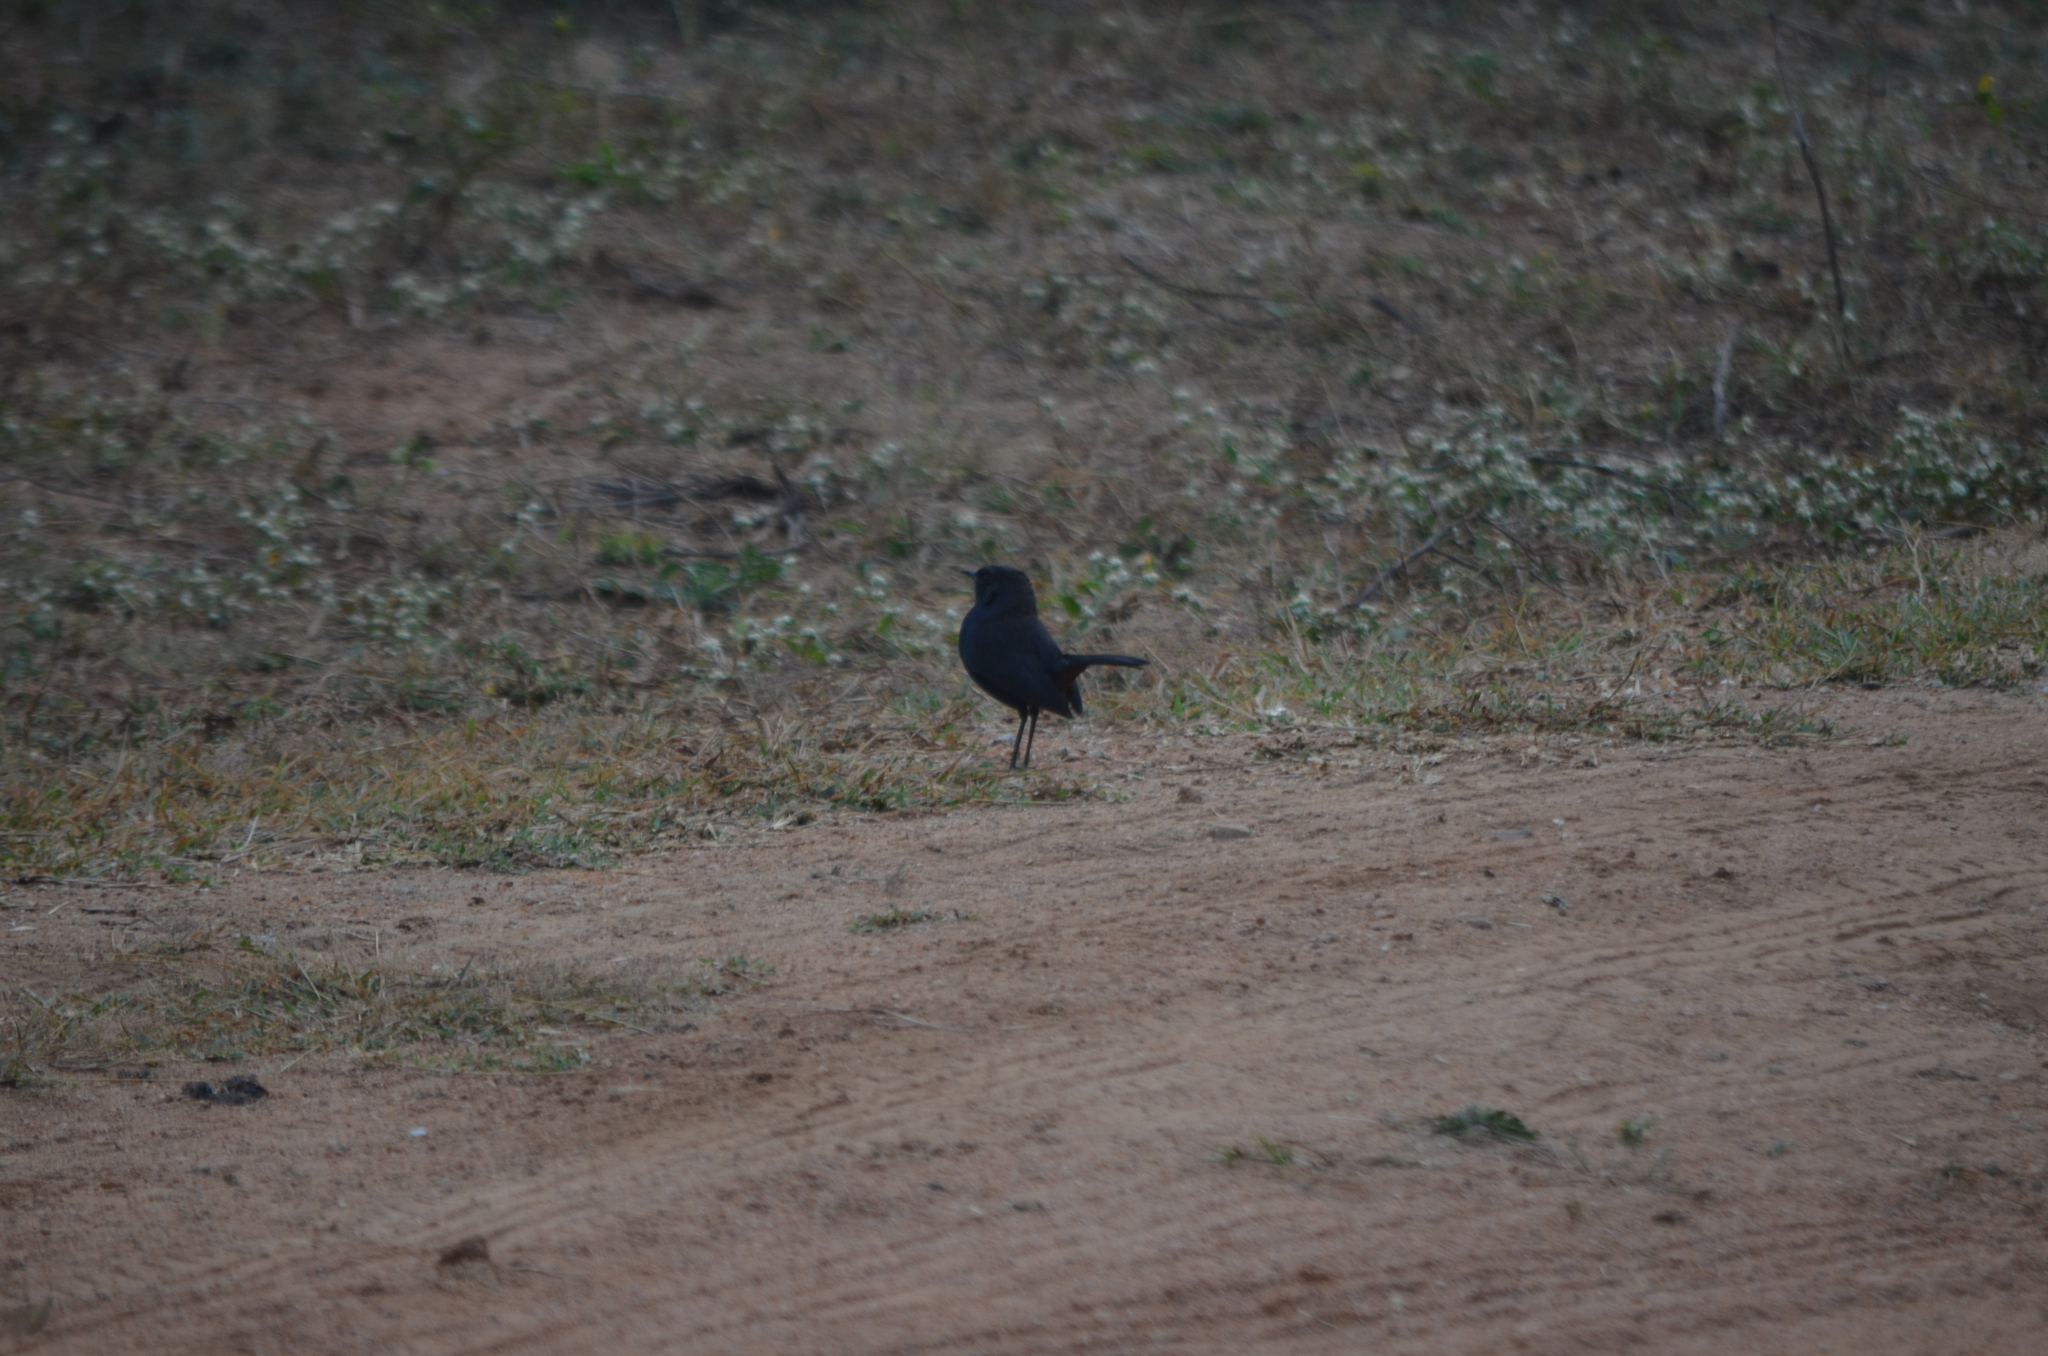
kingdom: Animalia
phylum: Chordata
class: Aves
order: Passeriformes
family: Muscicapidae
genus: Saxicoloides
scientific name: Saxicoloides fulicatus
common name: Indian robin
